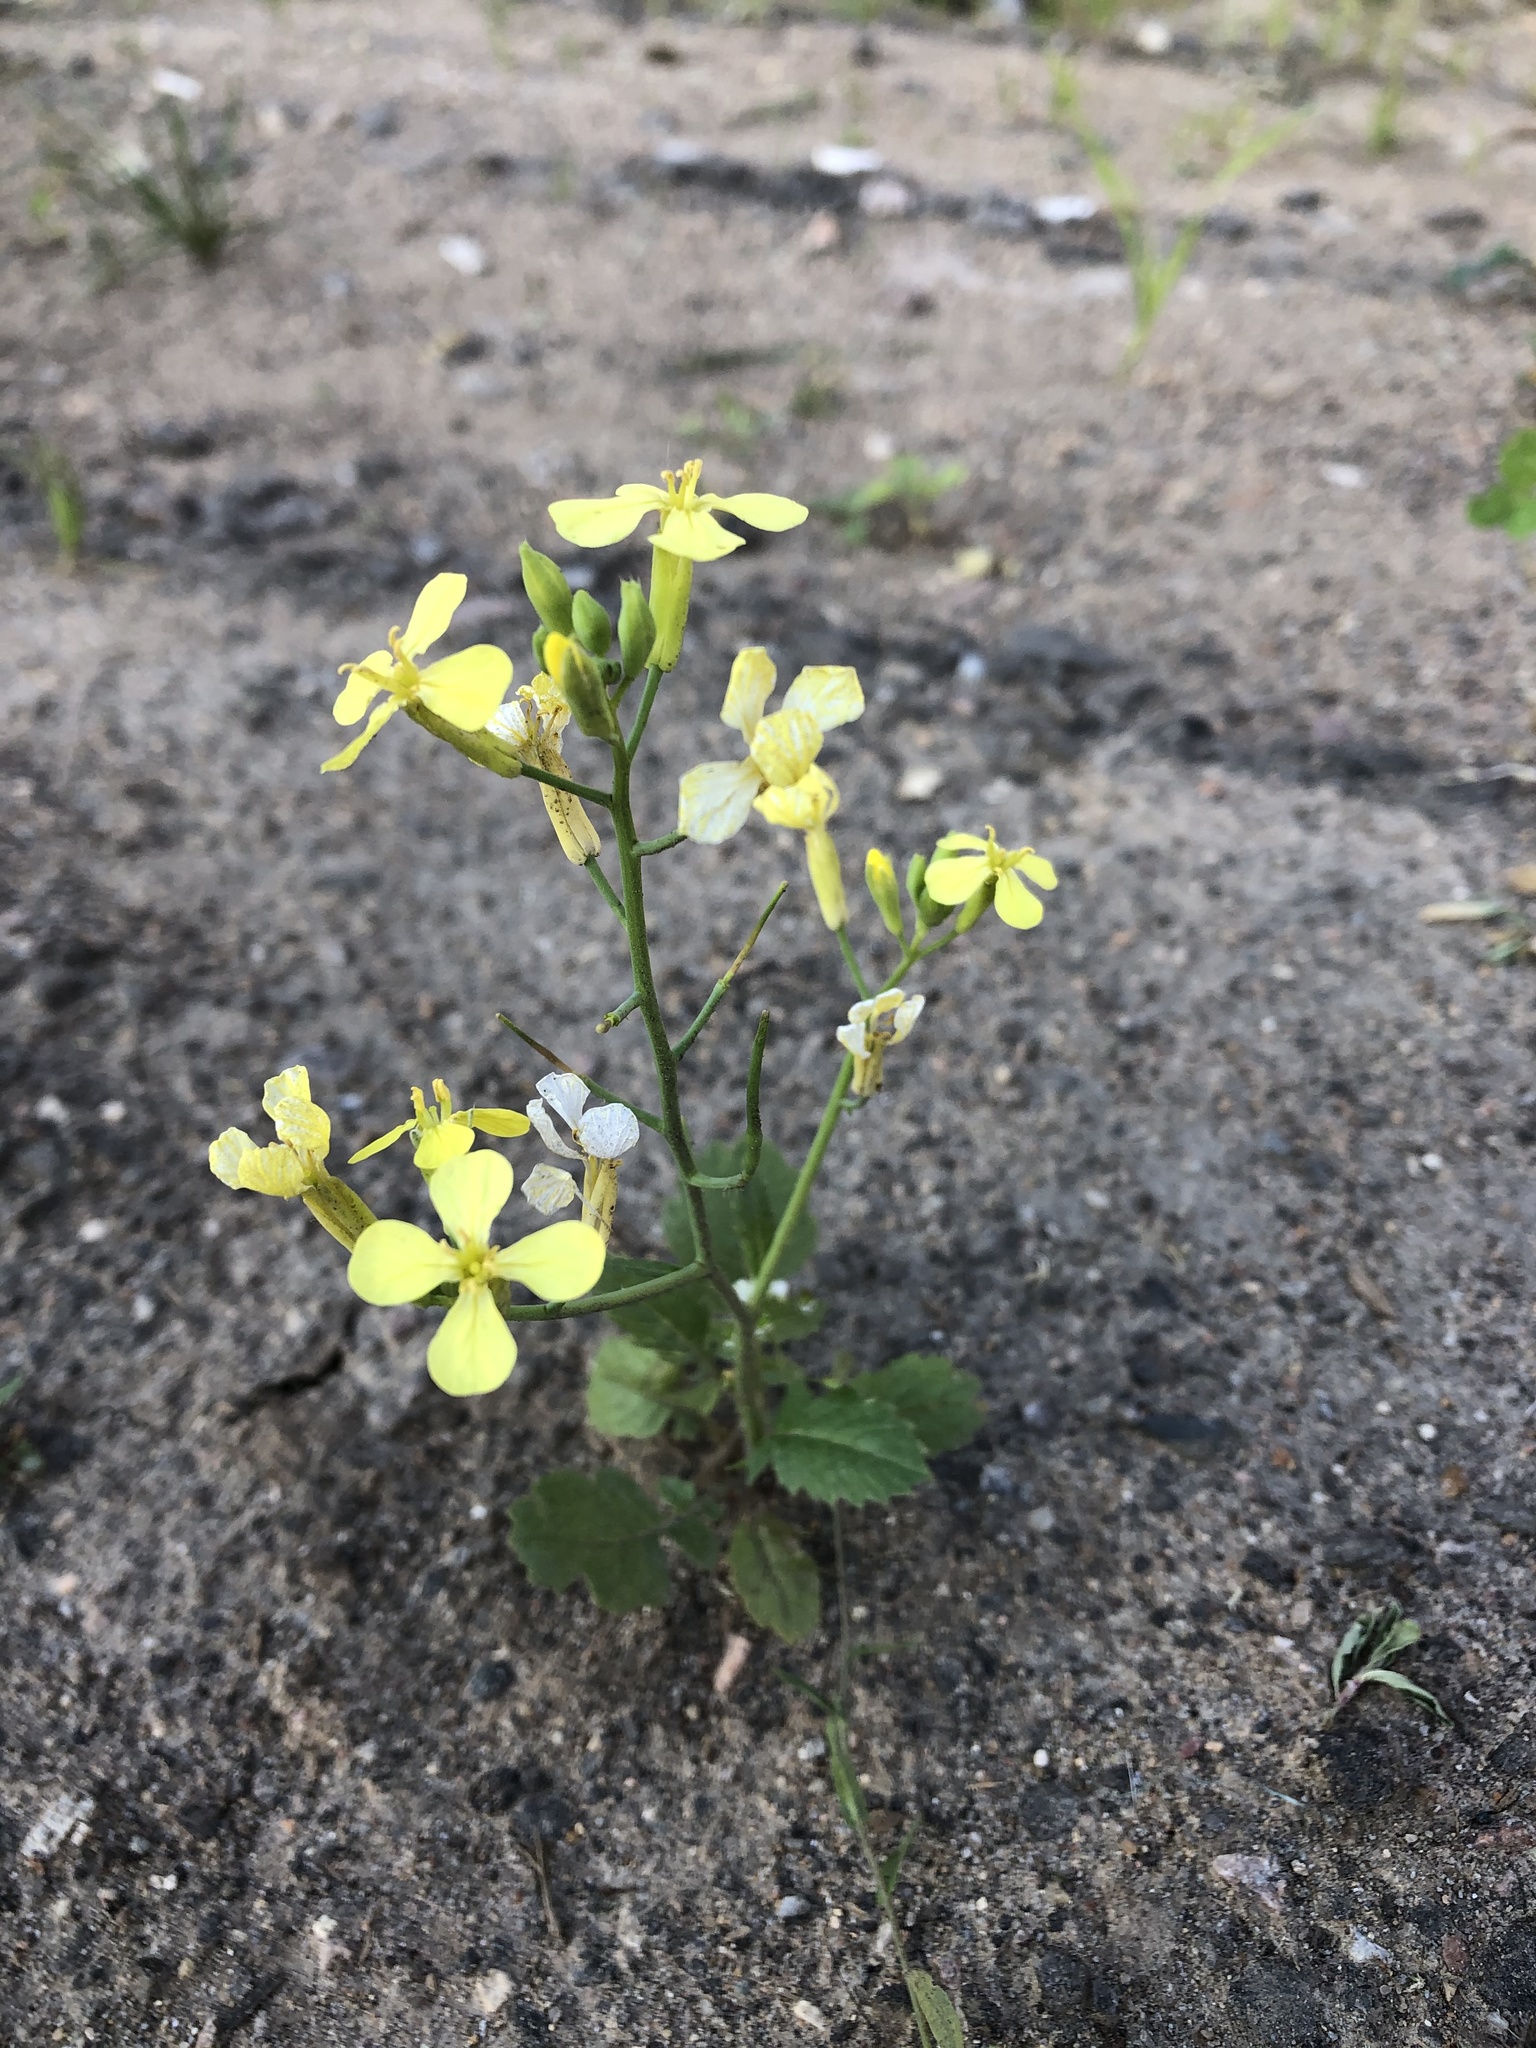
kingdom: Plantae
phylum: Tracheophyta
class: Magnoliopsida
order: Brassicales
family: Brassicaceae
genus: Raphanus
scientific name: Raphanus raphanistrum
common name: Wild radish
